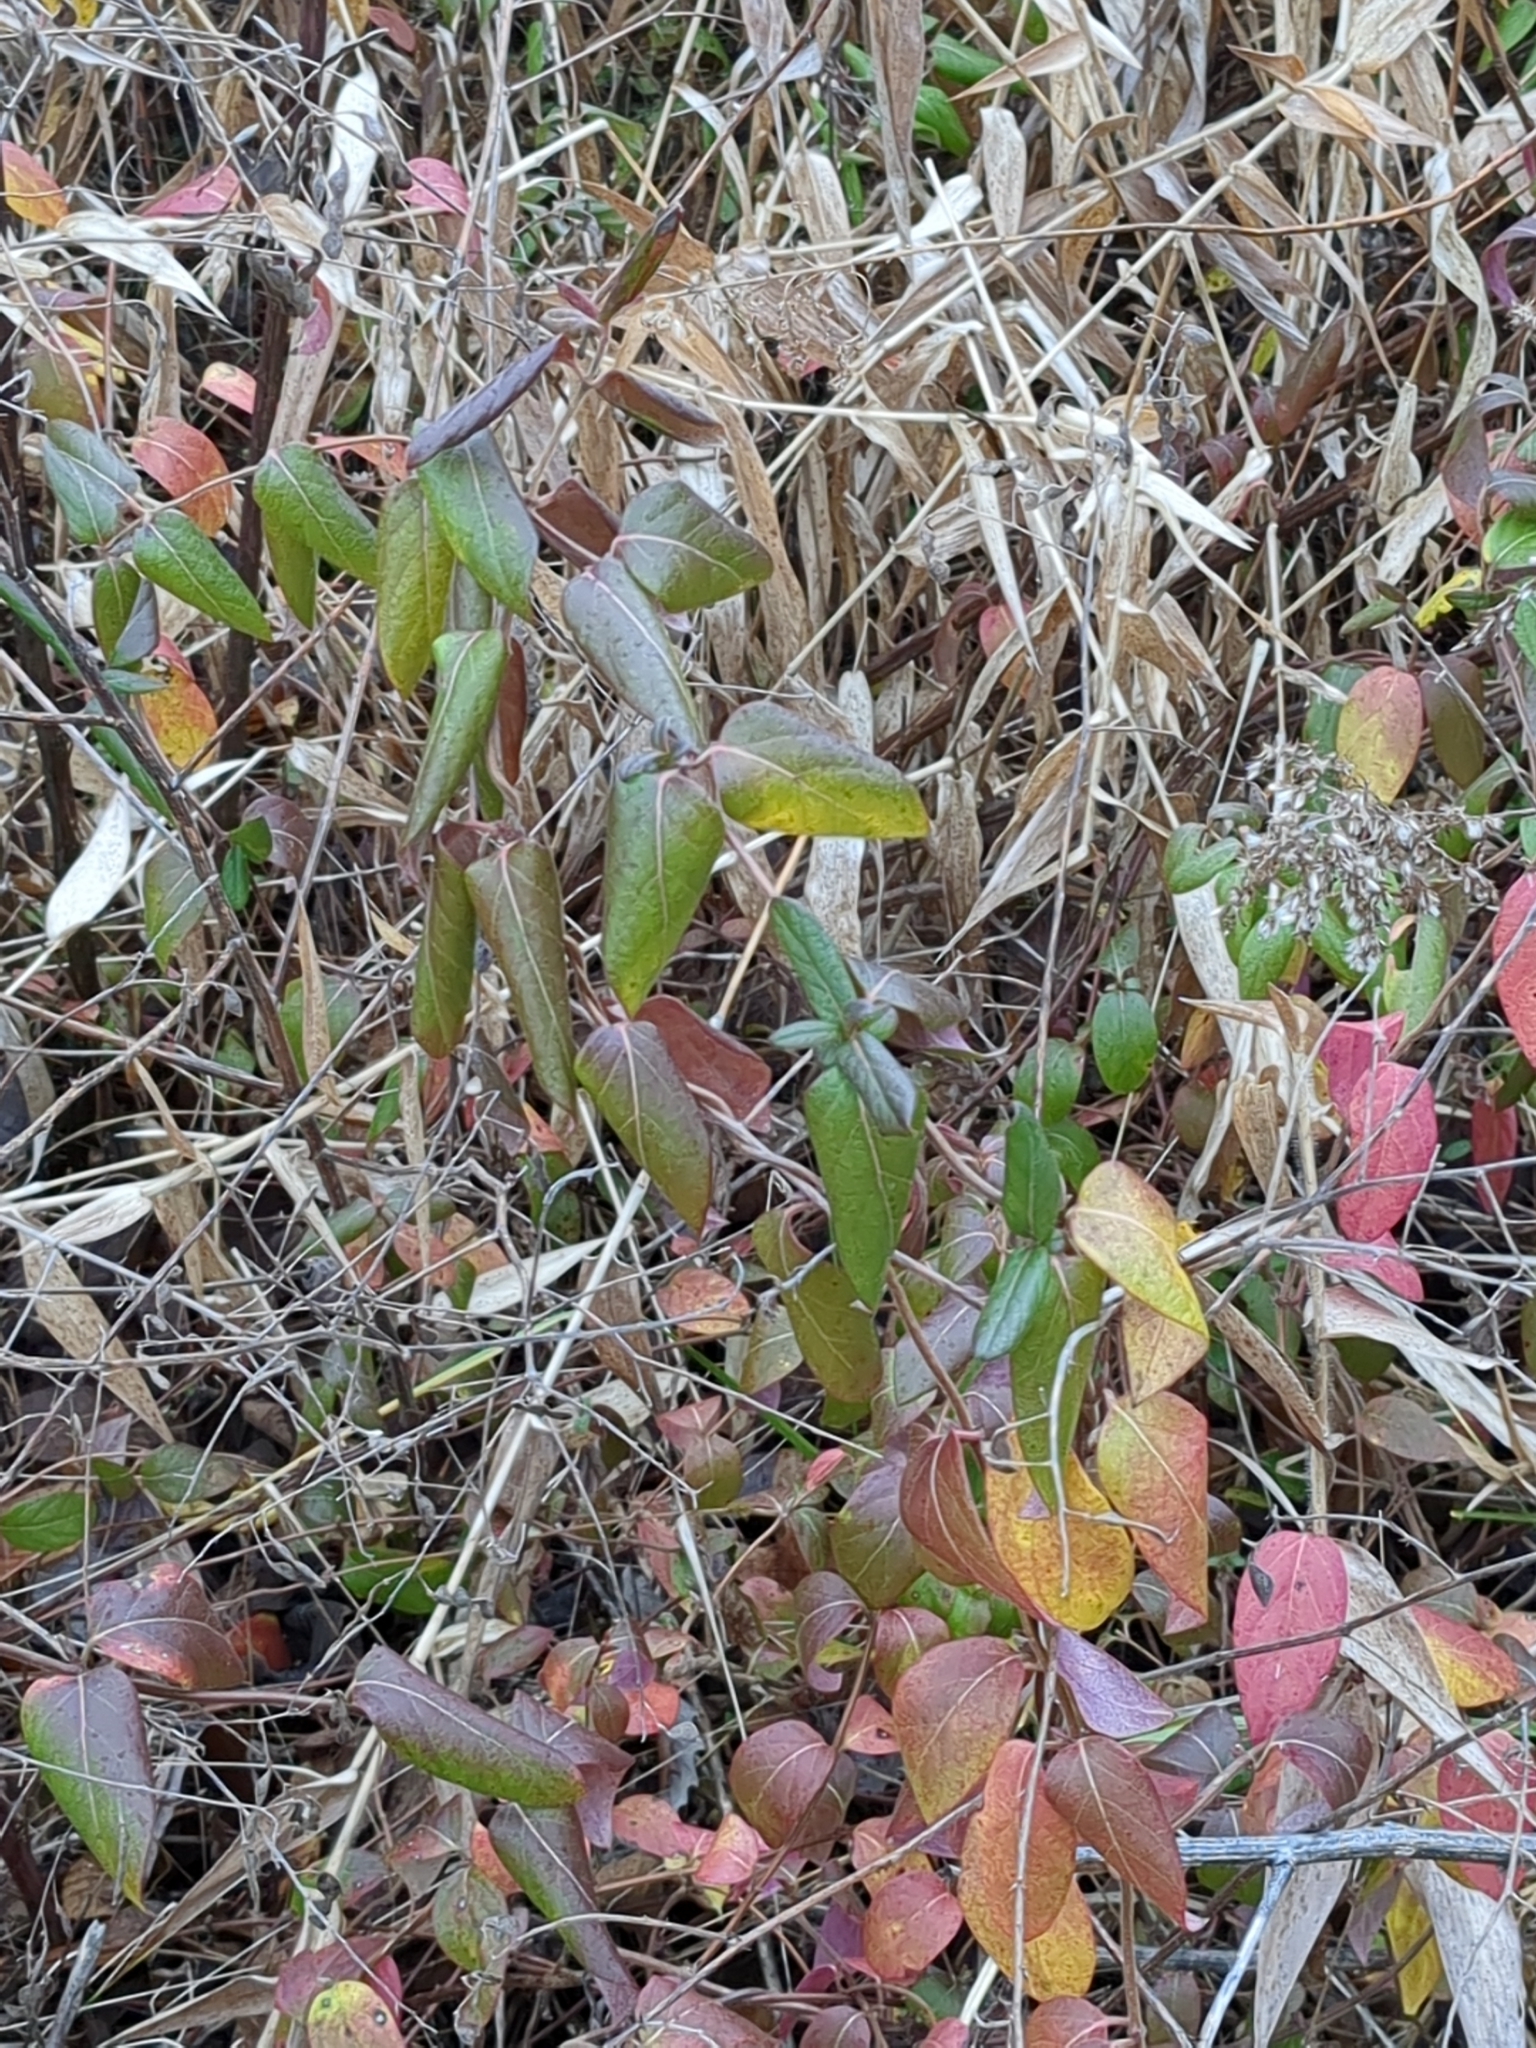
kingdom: Plantae
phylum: Tracheophyta
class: Magnoliopsida
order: Dipsacales
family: Caprifoliaceae
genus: Lonicera
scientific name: Lonicera japonica
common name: Japanese honeysuckle
